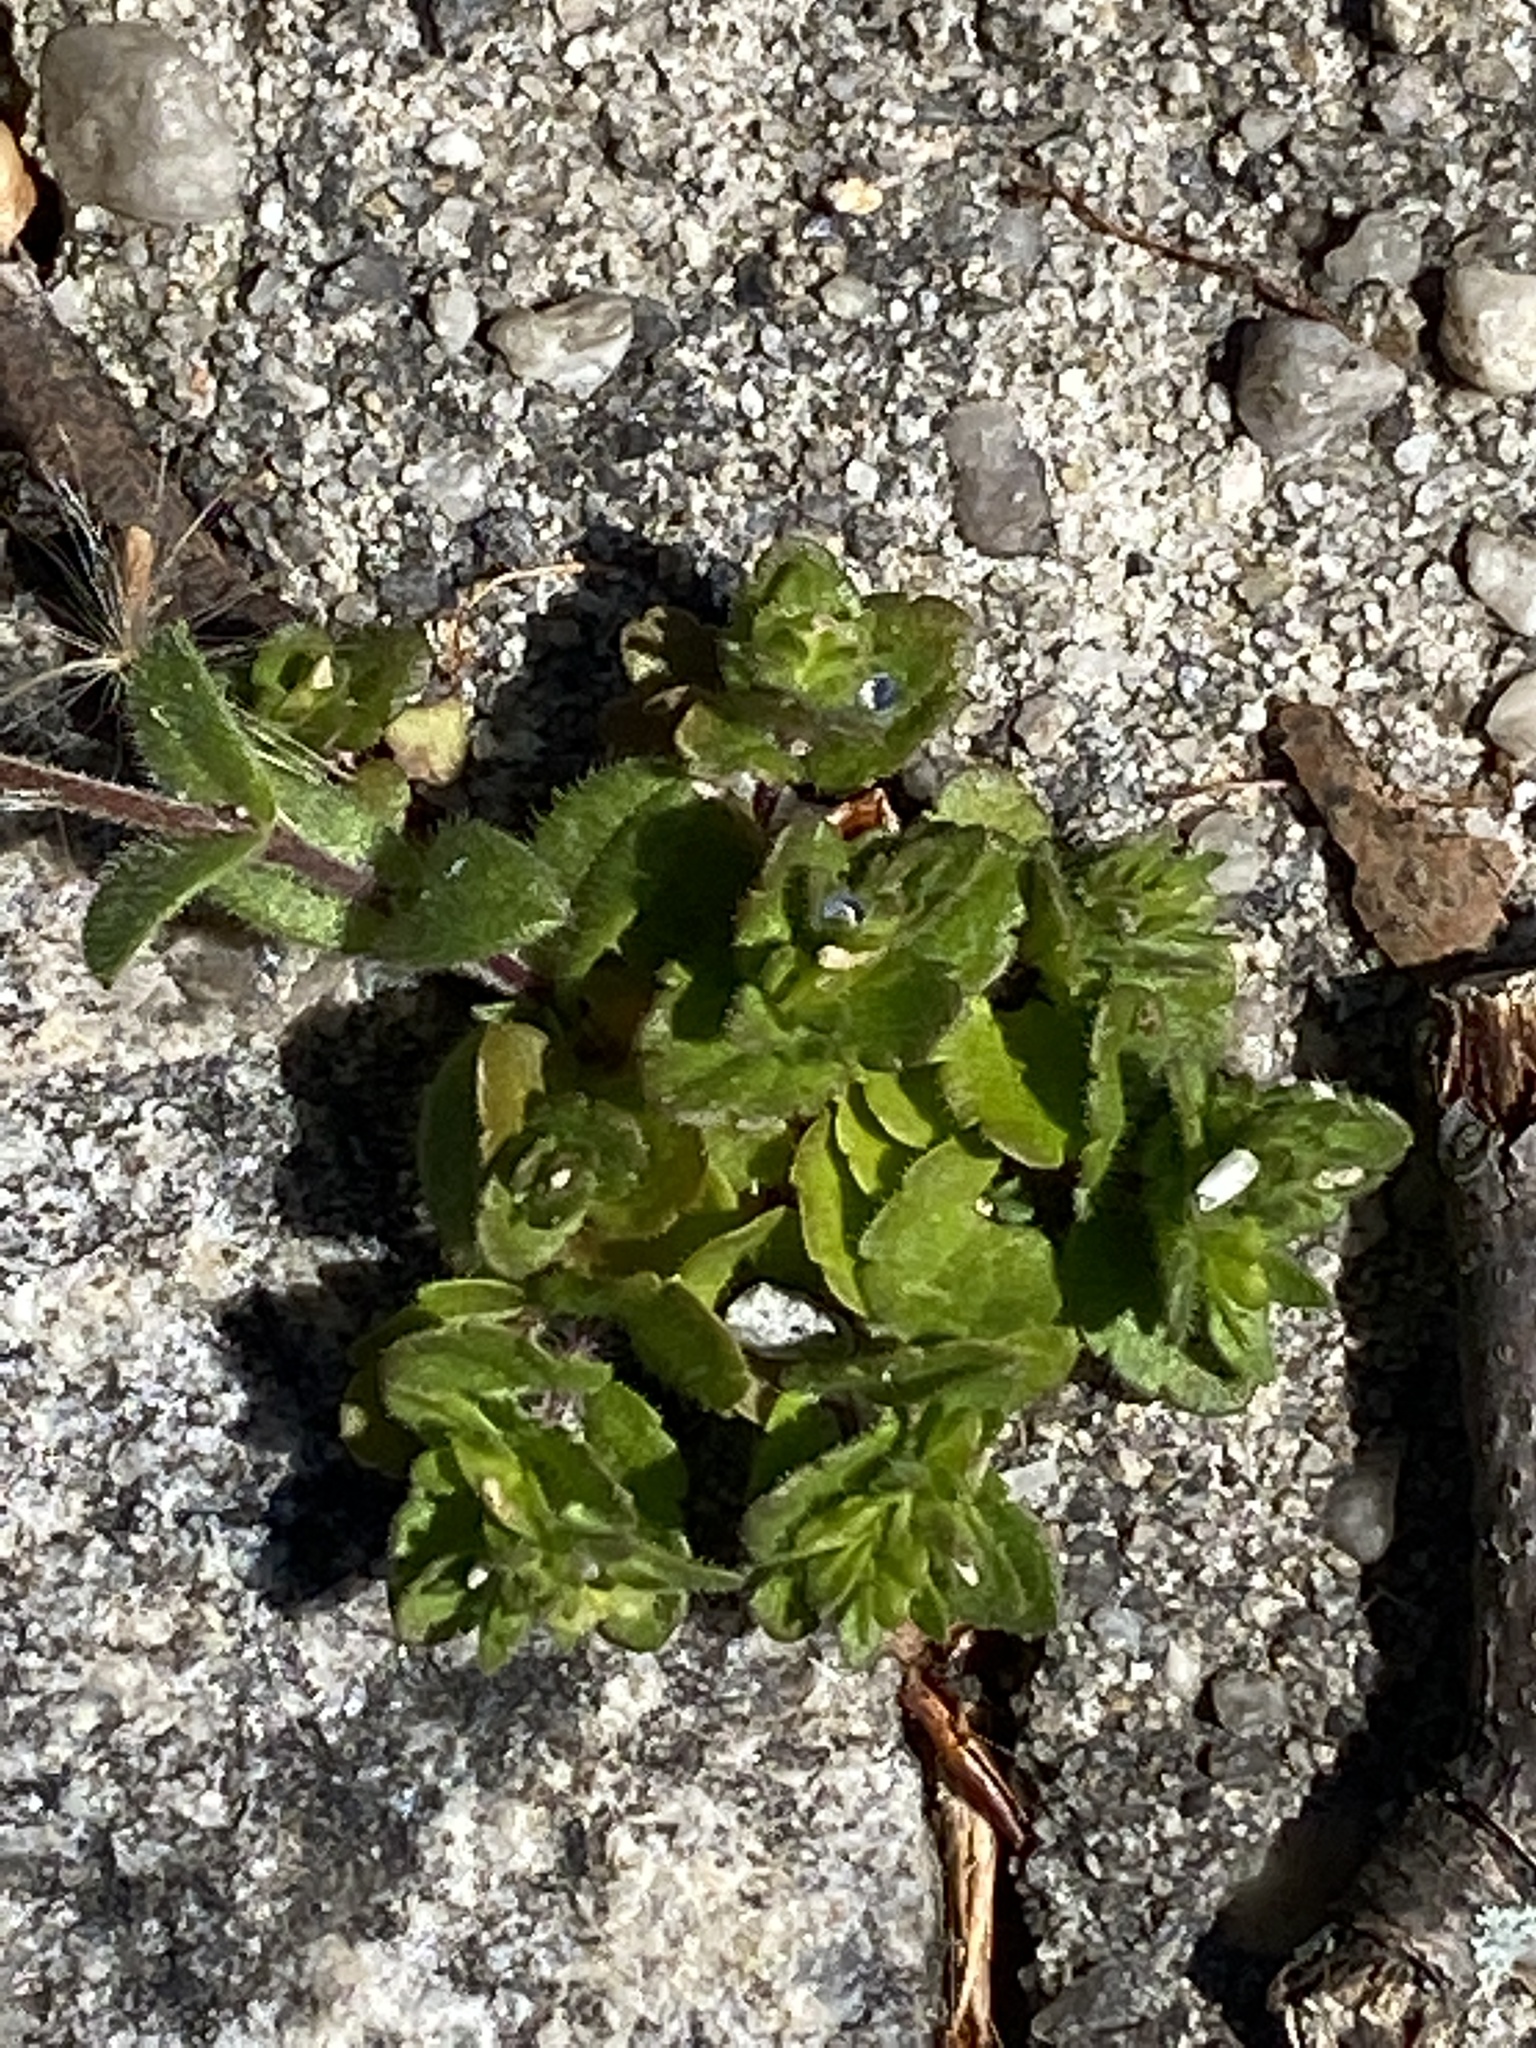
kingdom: Plantae
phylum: Tracheophyta
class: Magnoliopsida
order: Lamiales
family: Plantaginaceae
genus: Veronica
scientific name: Veronica arvensis
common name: Corn speedwell
